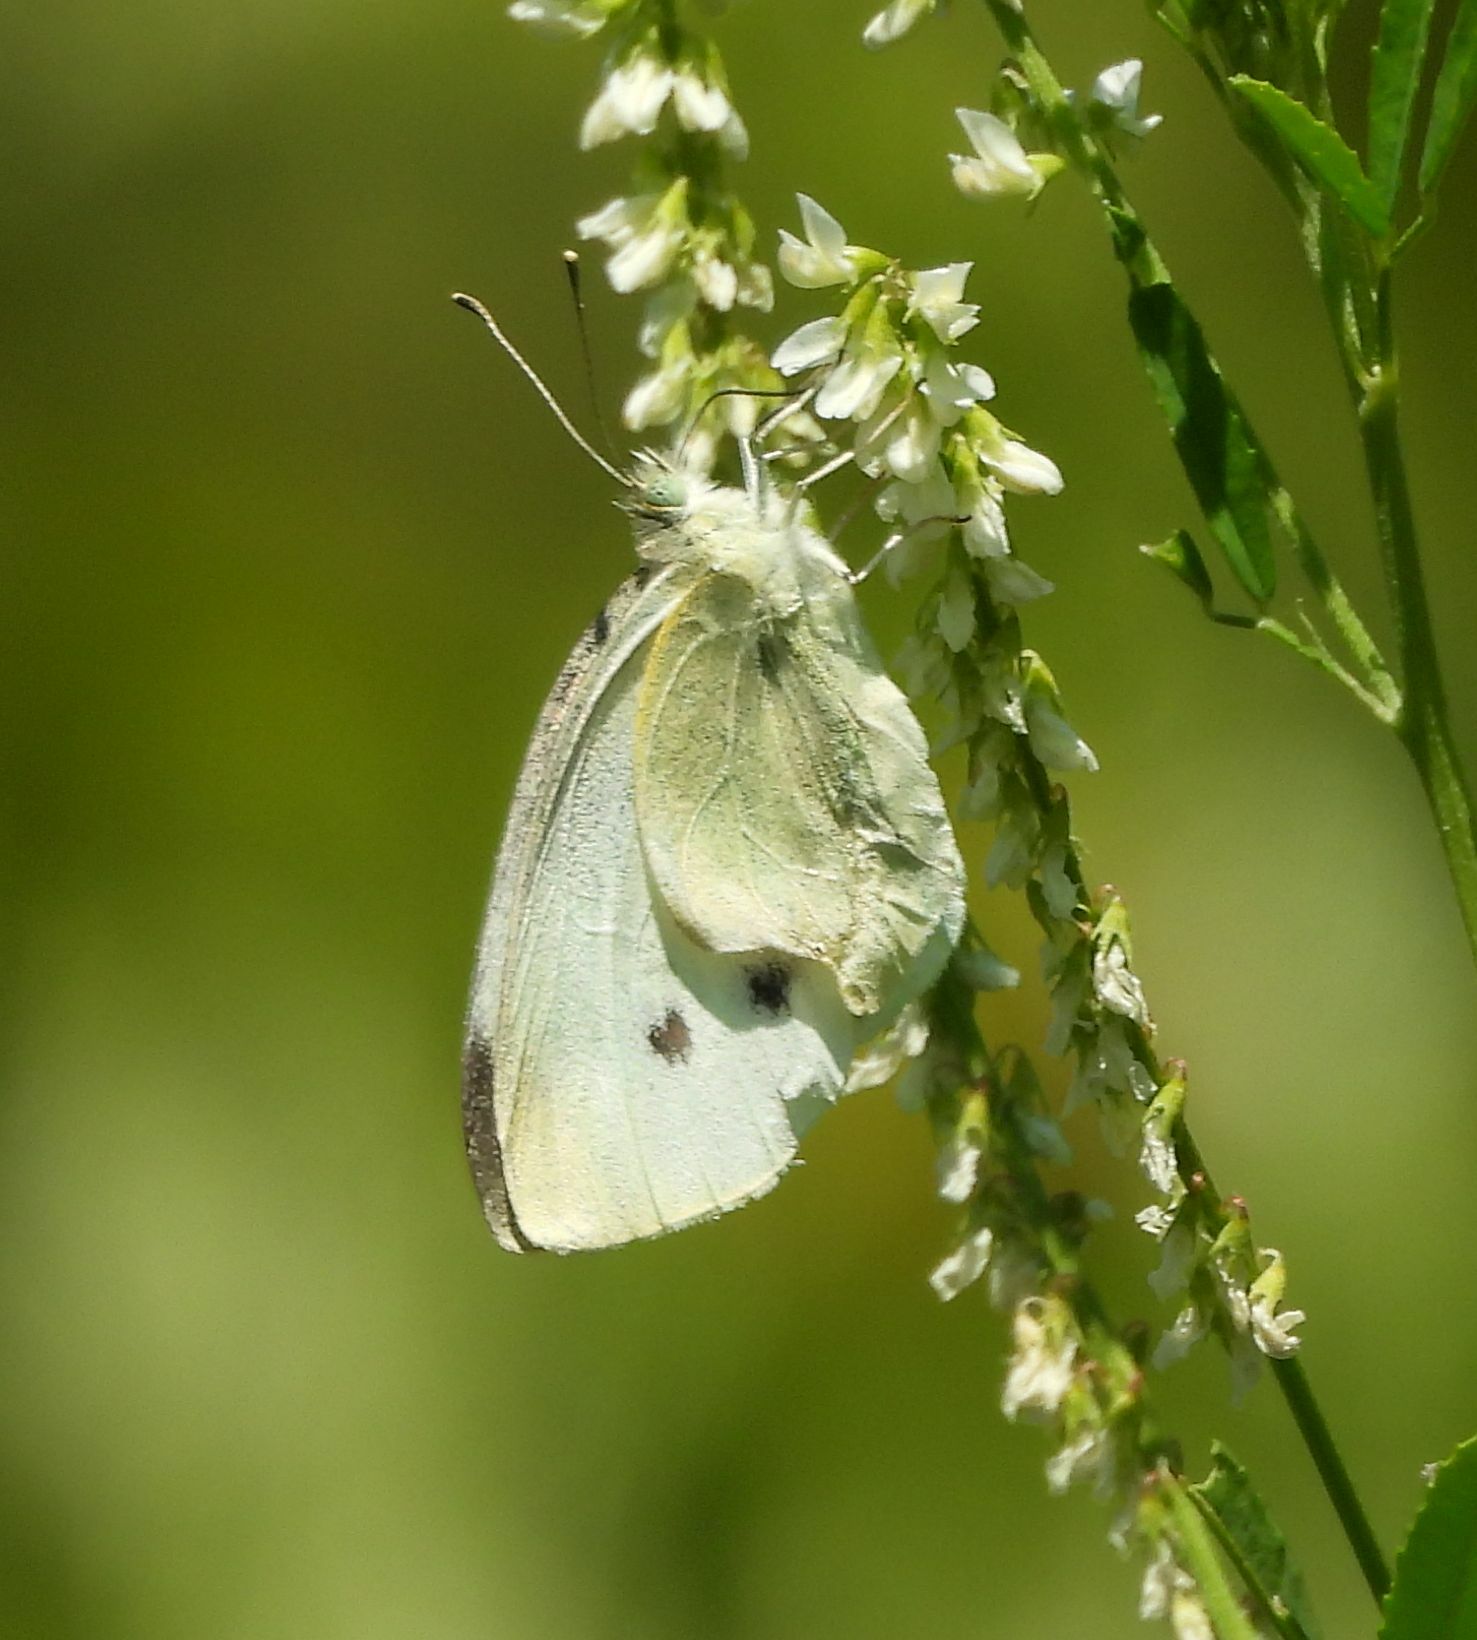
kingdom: Animalia
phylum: Arthropoda
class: Insecta
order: Lepidoptera
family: Pieridae
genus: Pieris
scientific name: Pieris rapae
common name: Small white
